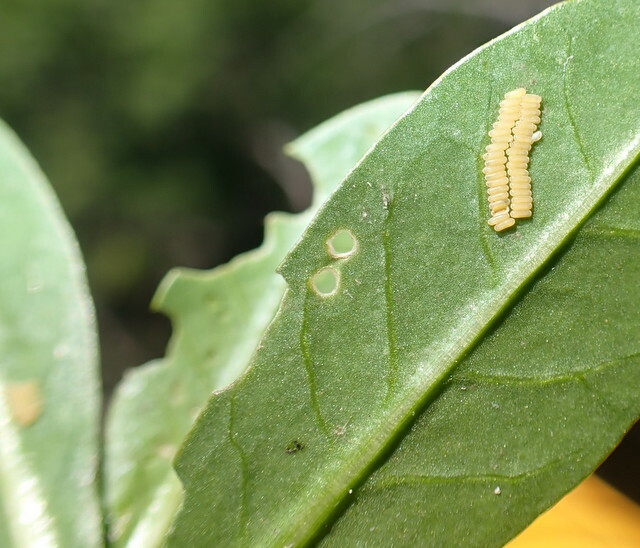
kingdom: Animalia
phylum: Arthropoda
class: Insecta
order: Coleoptera
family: Chrysomelidae
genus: Agasicles
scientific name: Agasicles hygrophila
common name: Alligatorweed flea beetle
